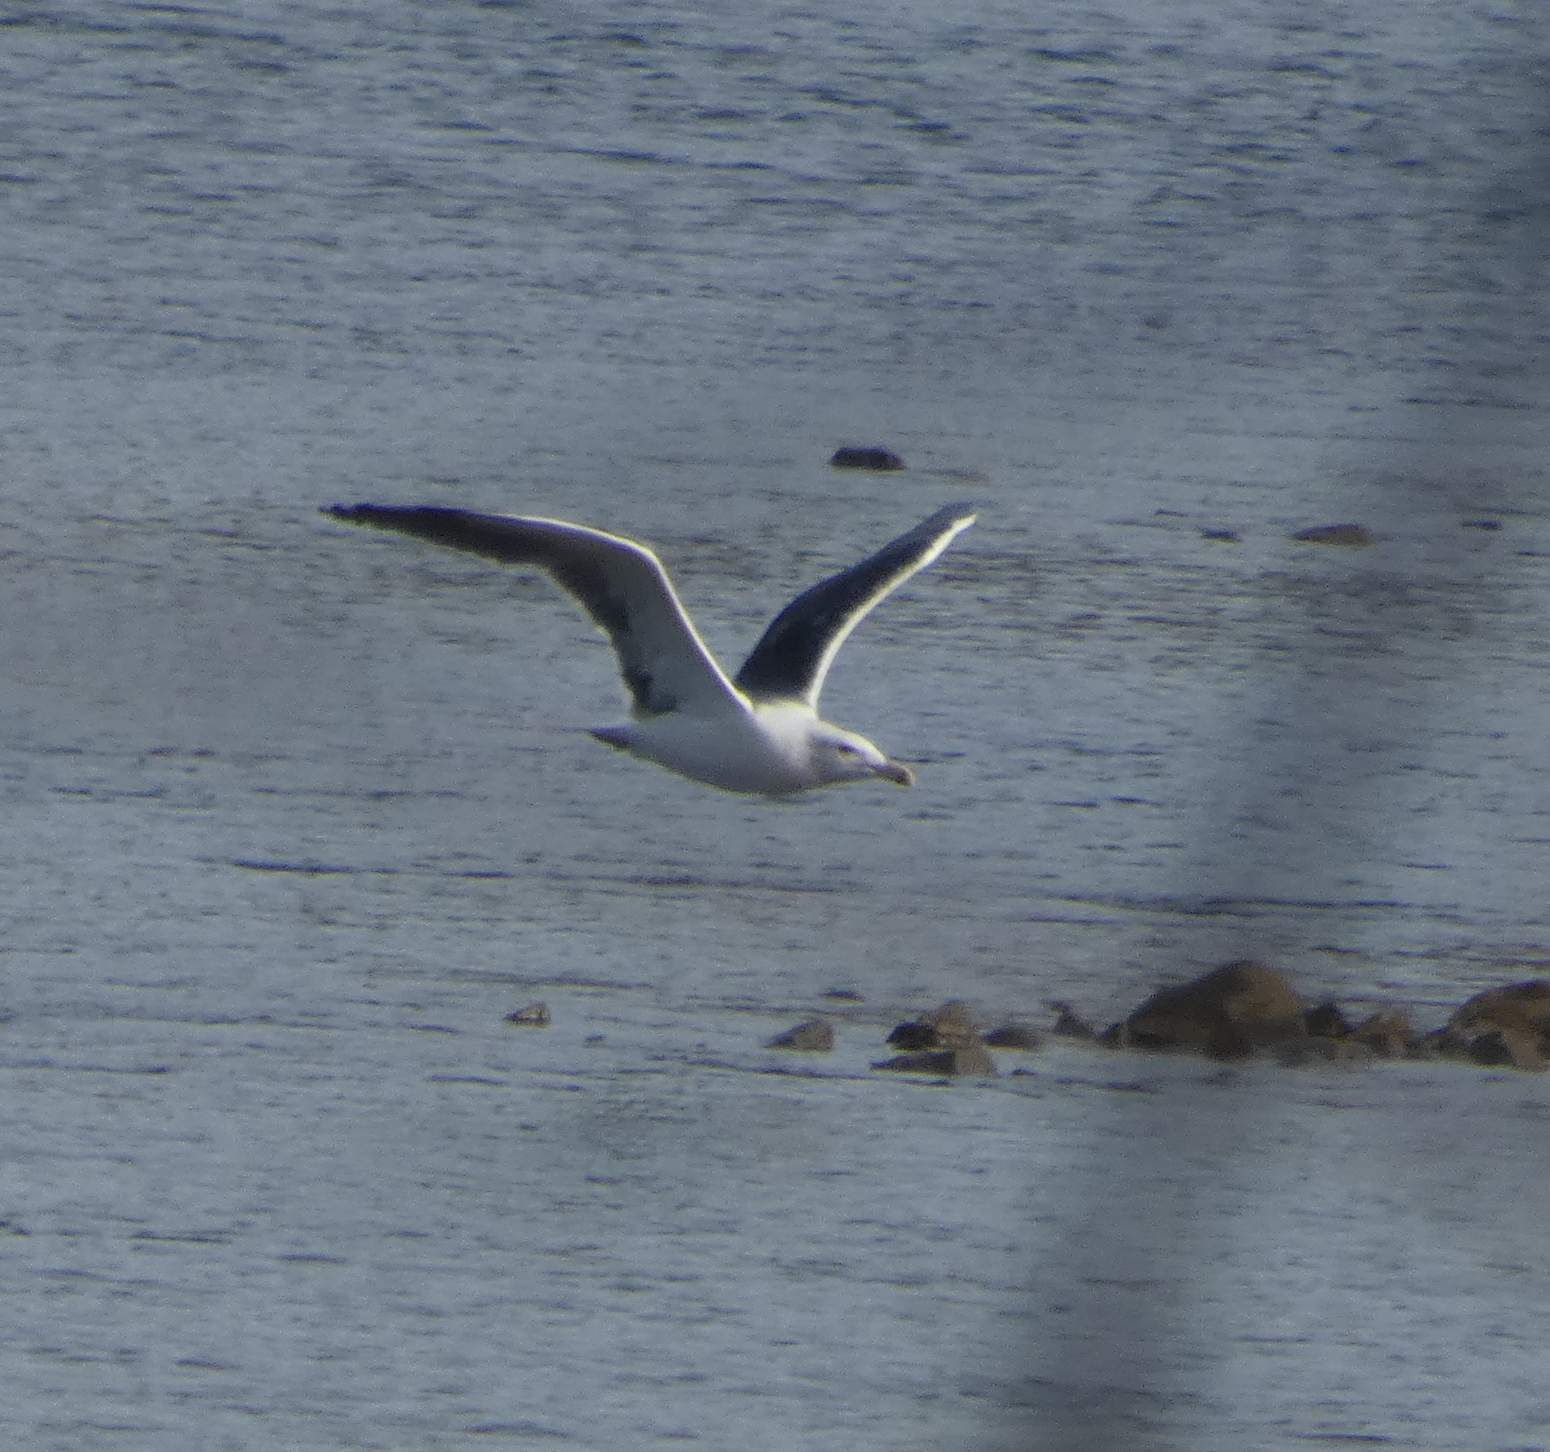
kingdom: Animalia
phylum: Chordata
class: Aves
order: Charadriiformes
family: Laridae
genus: Larus
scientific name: Larus marinus
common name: Great black-backed gull
